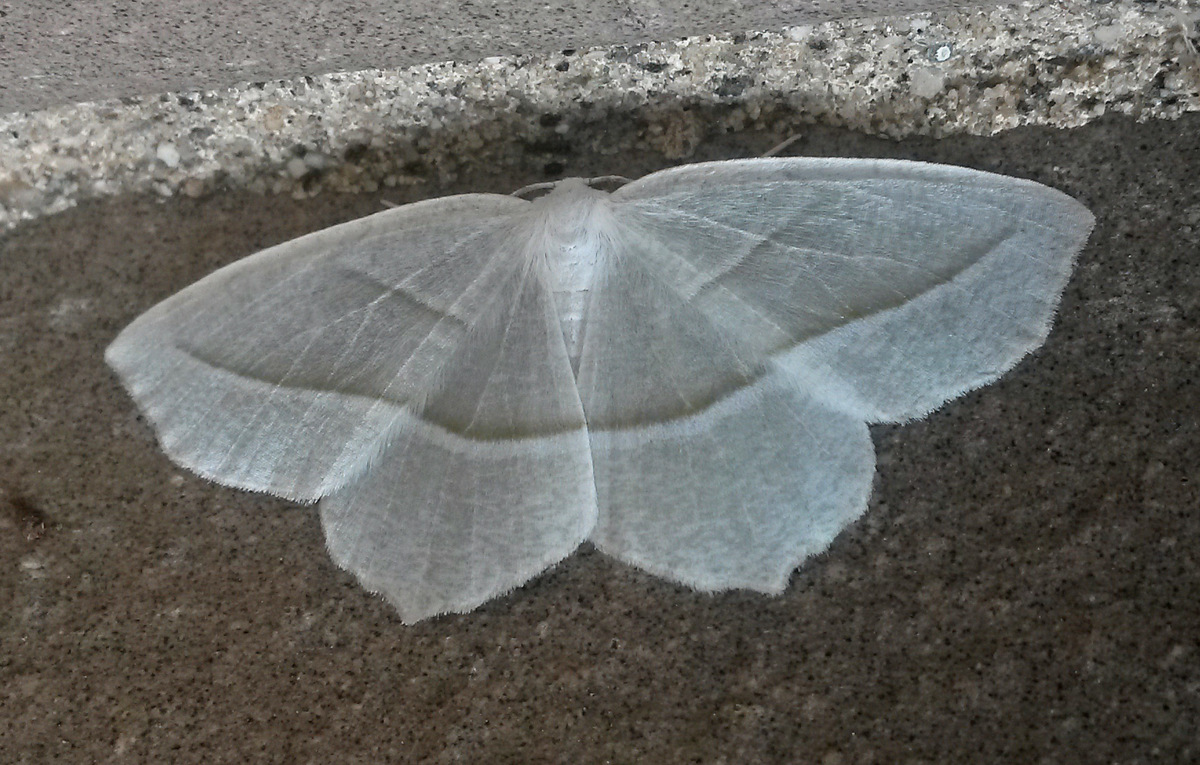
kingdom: Animalia
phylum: Arthropoda
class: Insecta
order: Lepidoptera
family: Geometridae
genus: Campaea
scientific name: Campaea perlata
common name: Fringed looper
